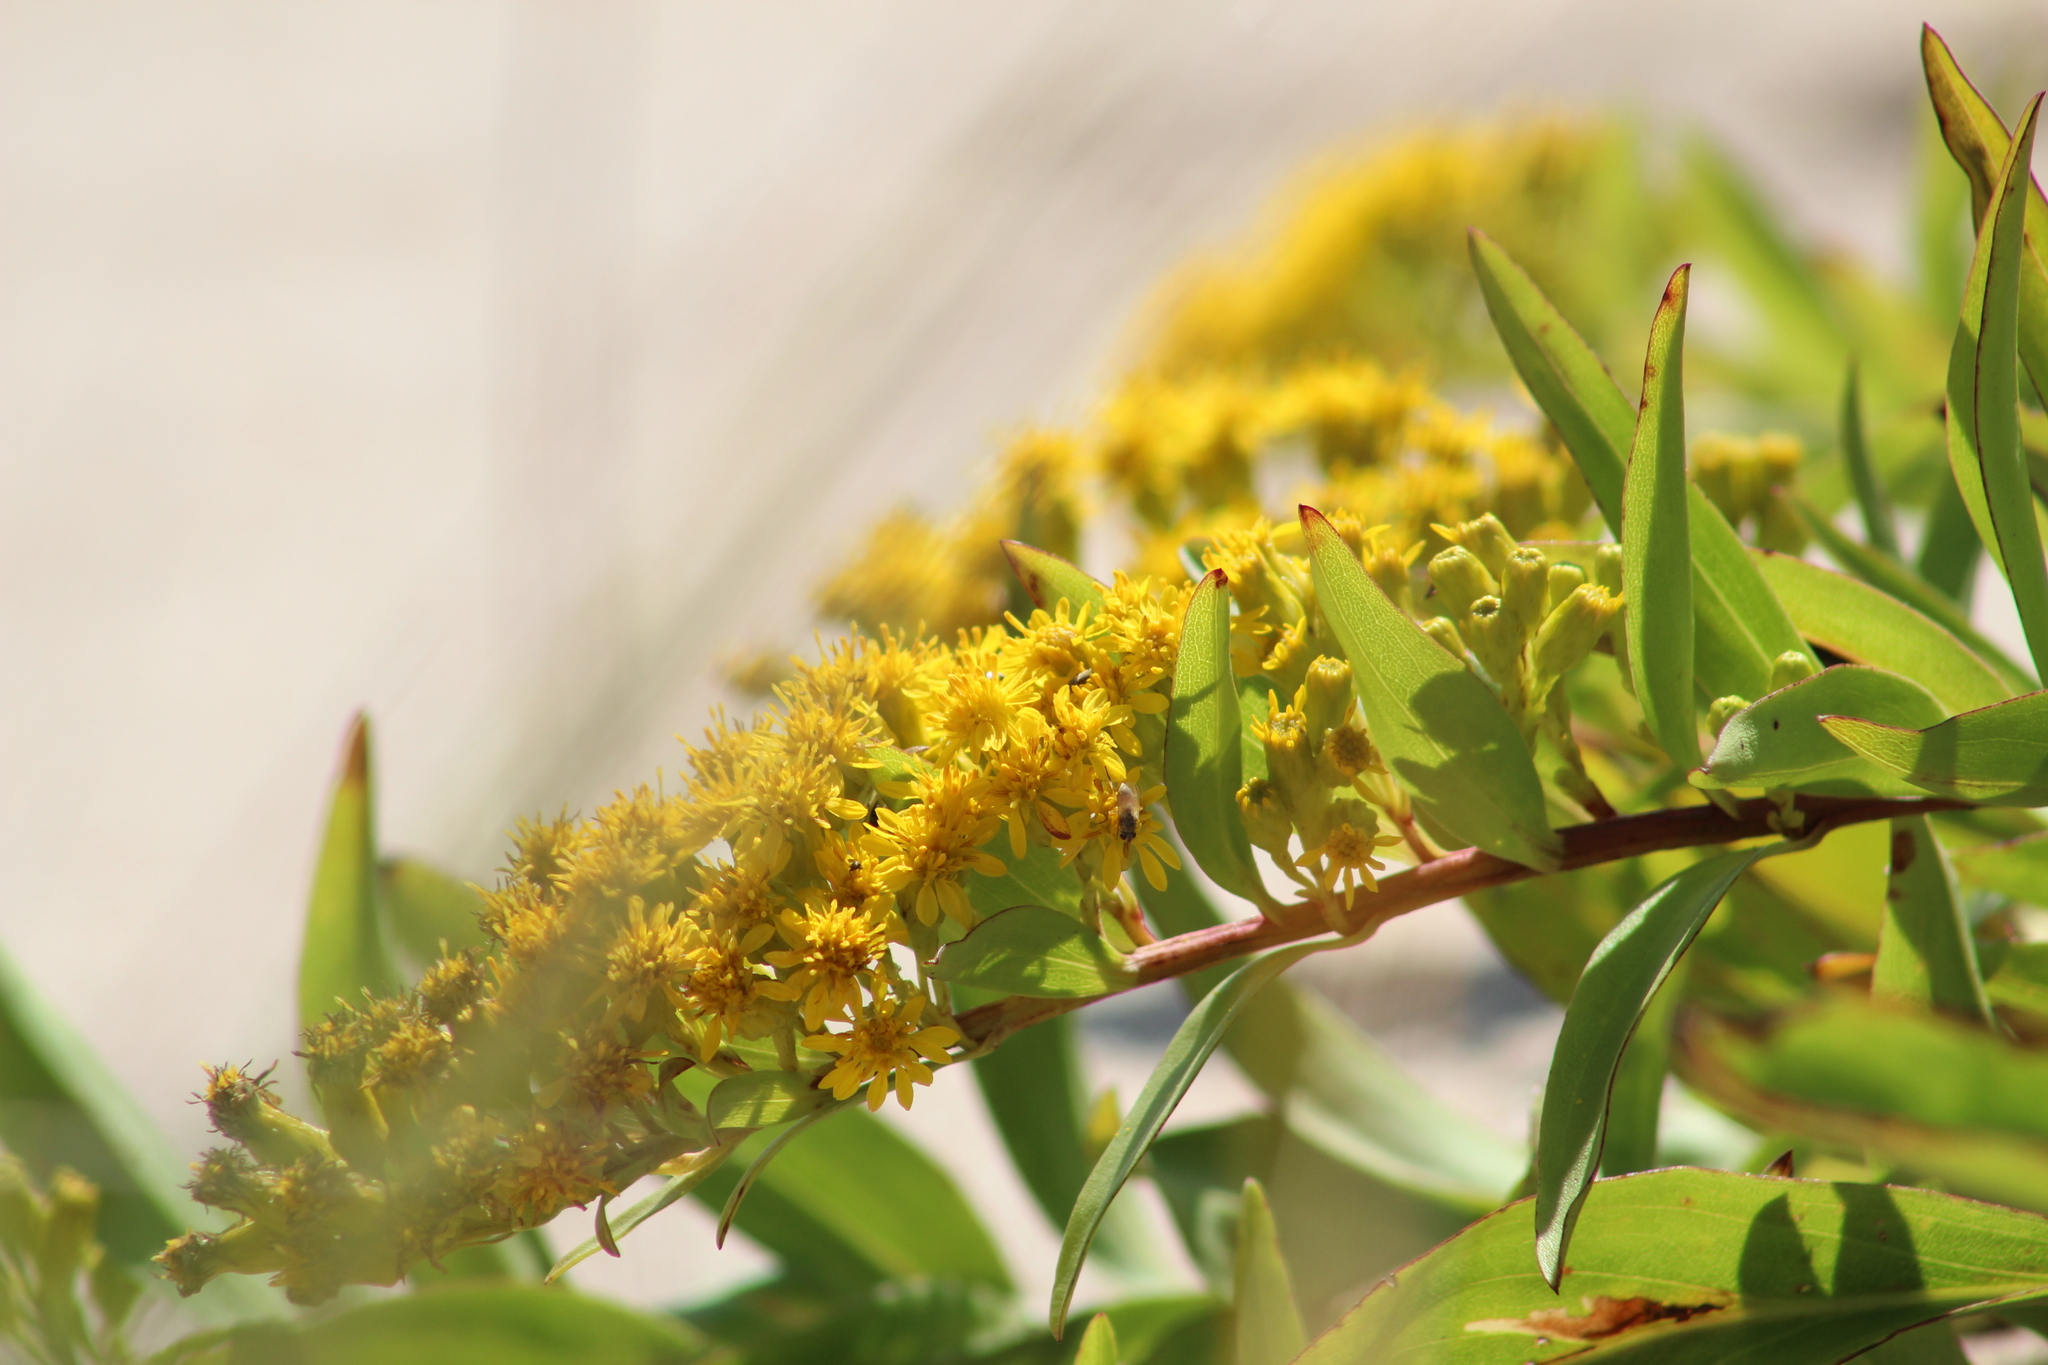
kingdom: Plantae
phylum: Tracheophyta
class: Magnoliopsida
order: Asterales
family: Asteraceae
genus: Solidago
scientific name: Solidago sempervirens
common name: Salt-marsh goldenrod
